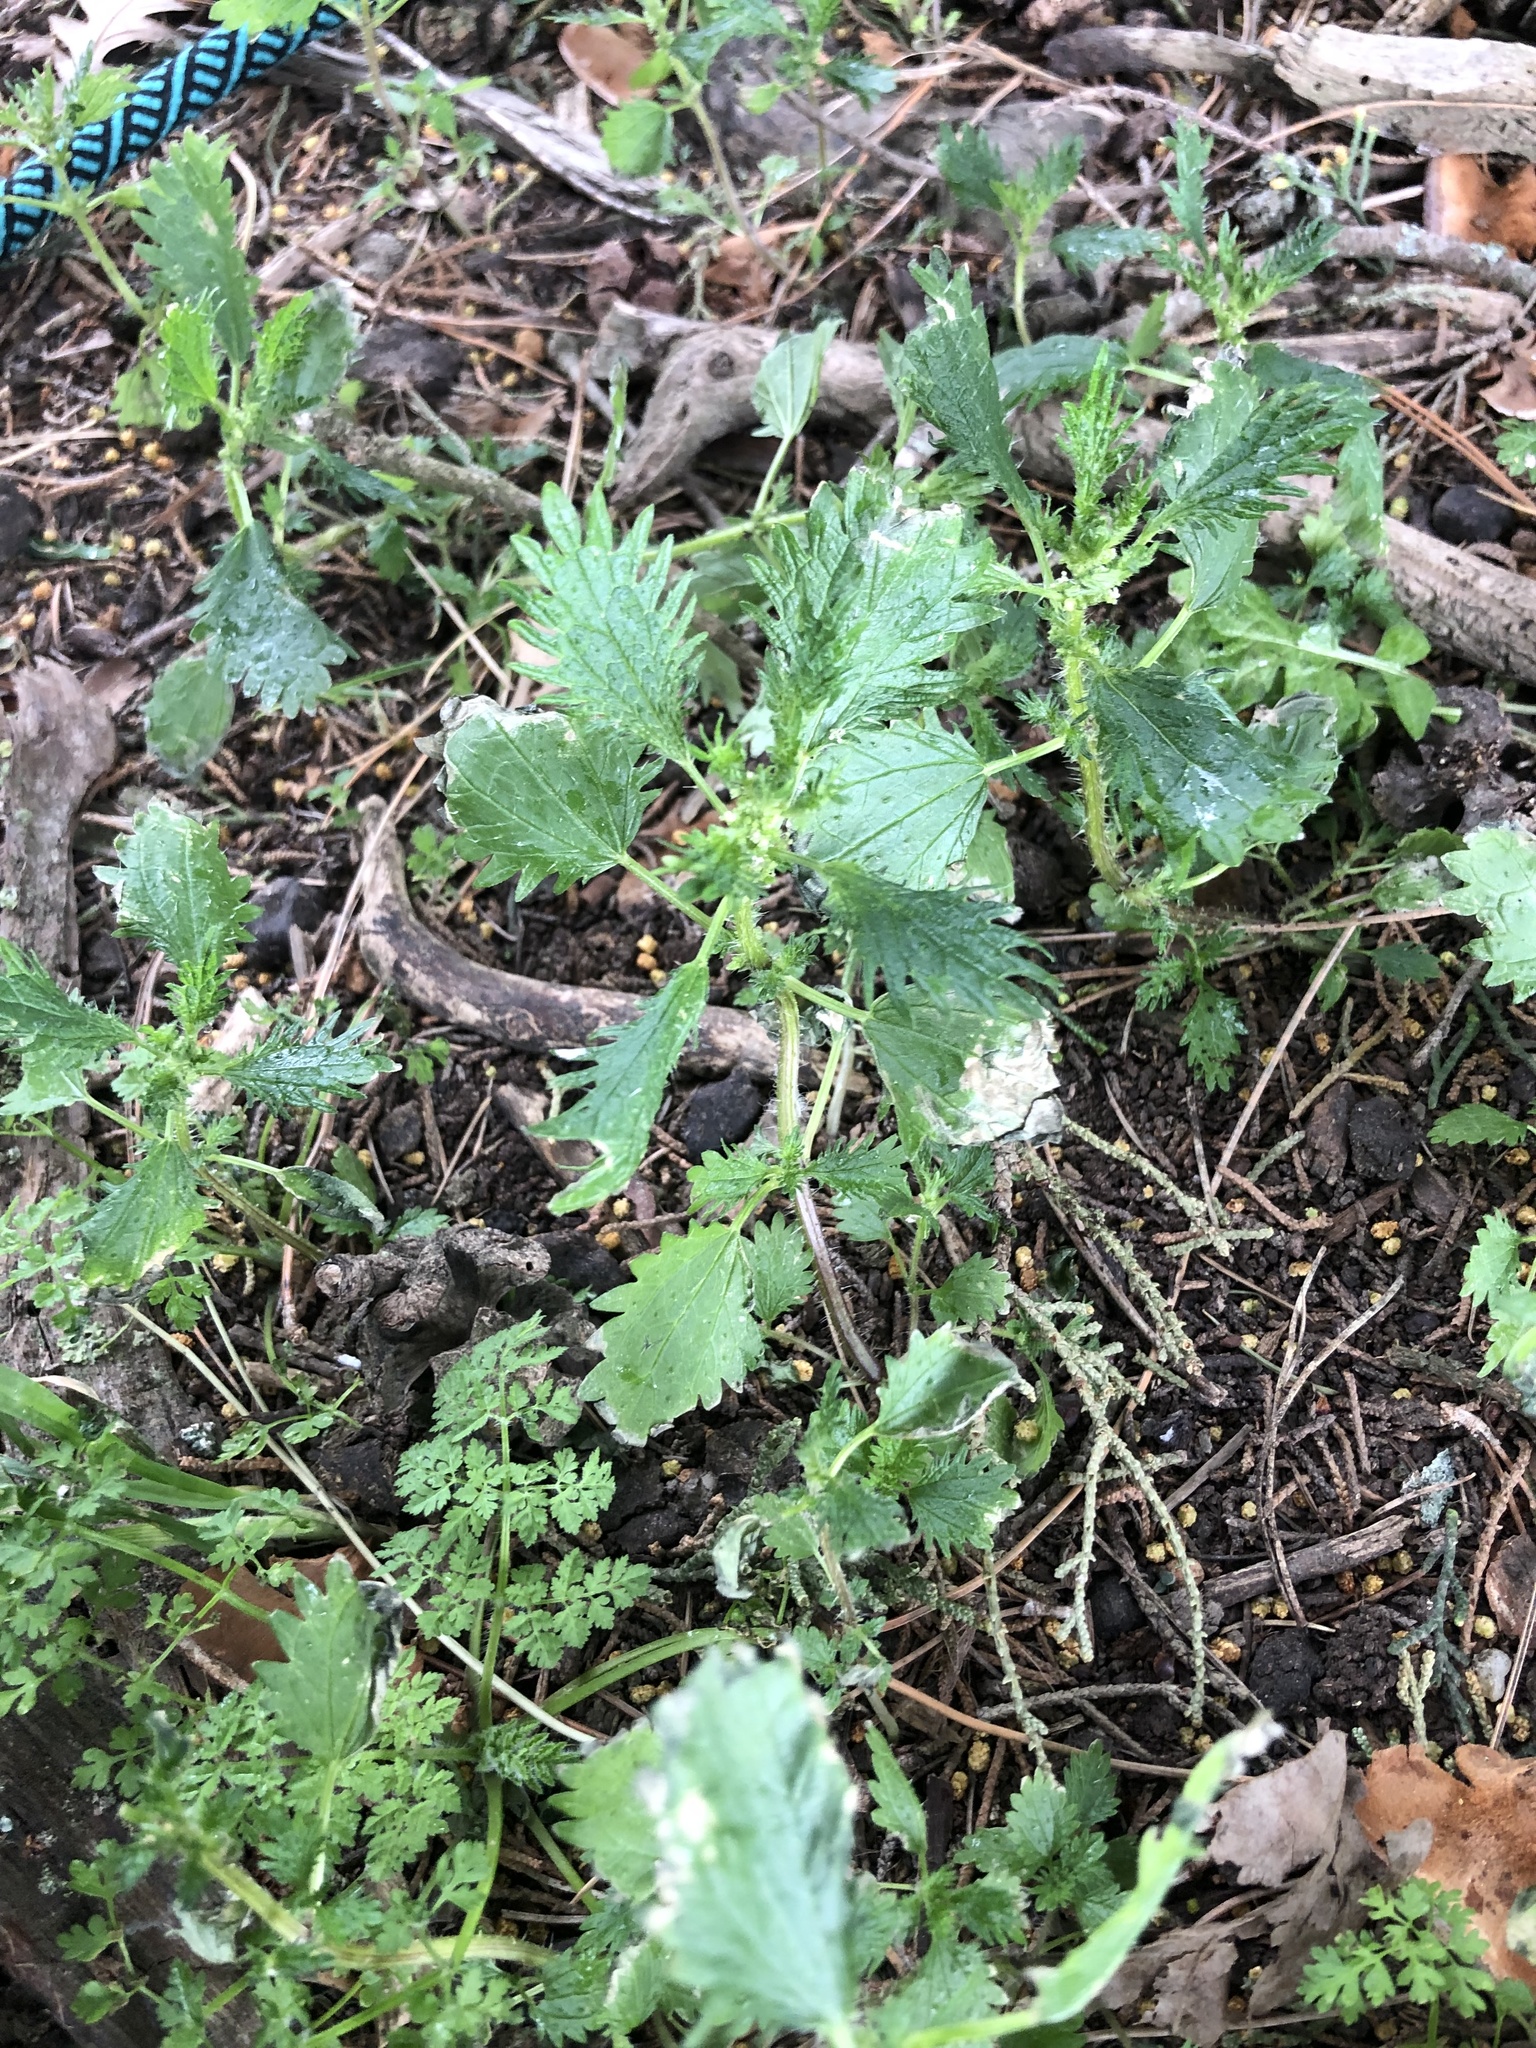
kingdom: Plantae
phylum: Tracheophyta
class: Magnoliopsida
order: Rosales
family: Urticaceae
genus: Urtica
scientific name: Urtica urens
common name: Dwarf nettle
